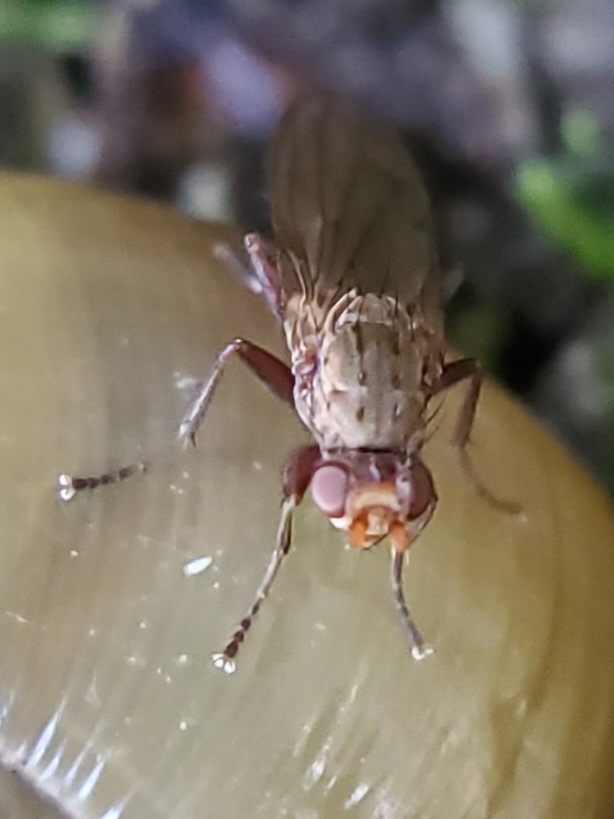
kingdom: Animalia
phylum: Arthropoda
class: Insecta
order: Diptera
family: Heleomyzidae
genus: Amoebaleria
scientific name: Amoebaleria defessa
